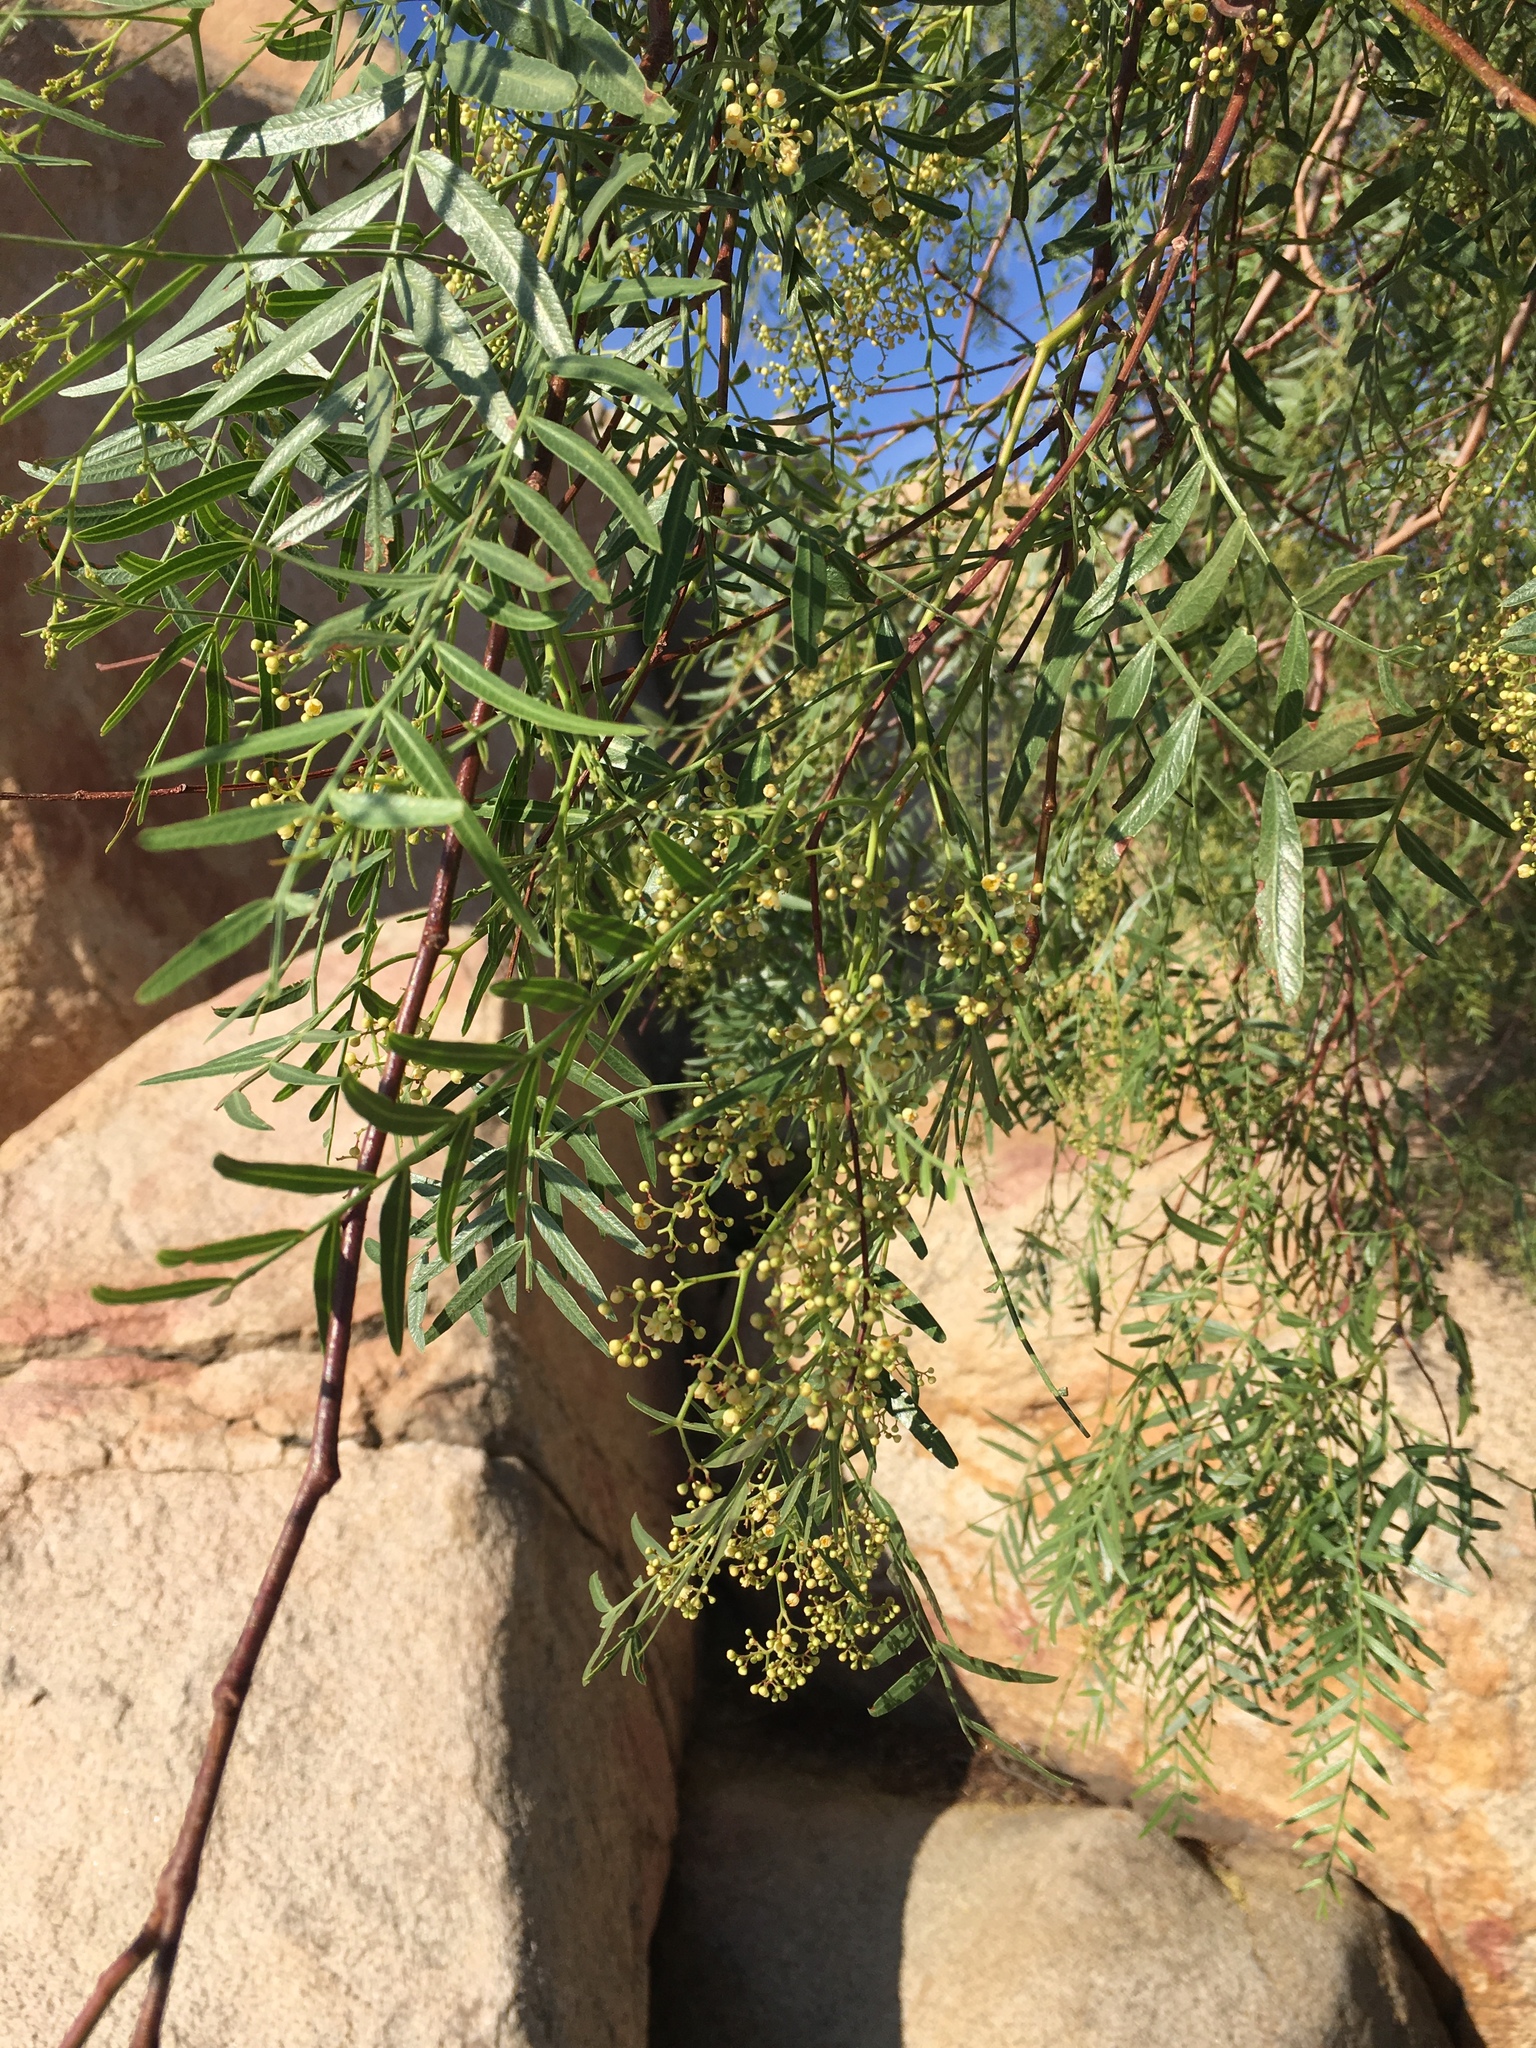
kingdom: Plantae
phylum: Tracheophyta
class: Magnoliopsida
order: Sapindales
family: Anacardiaceae
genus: Schinus
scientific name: Schinus molle
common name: Peruvian peppertree
